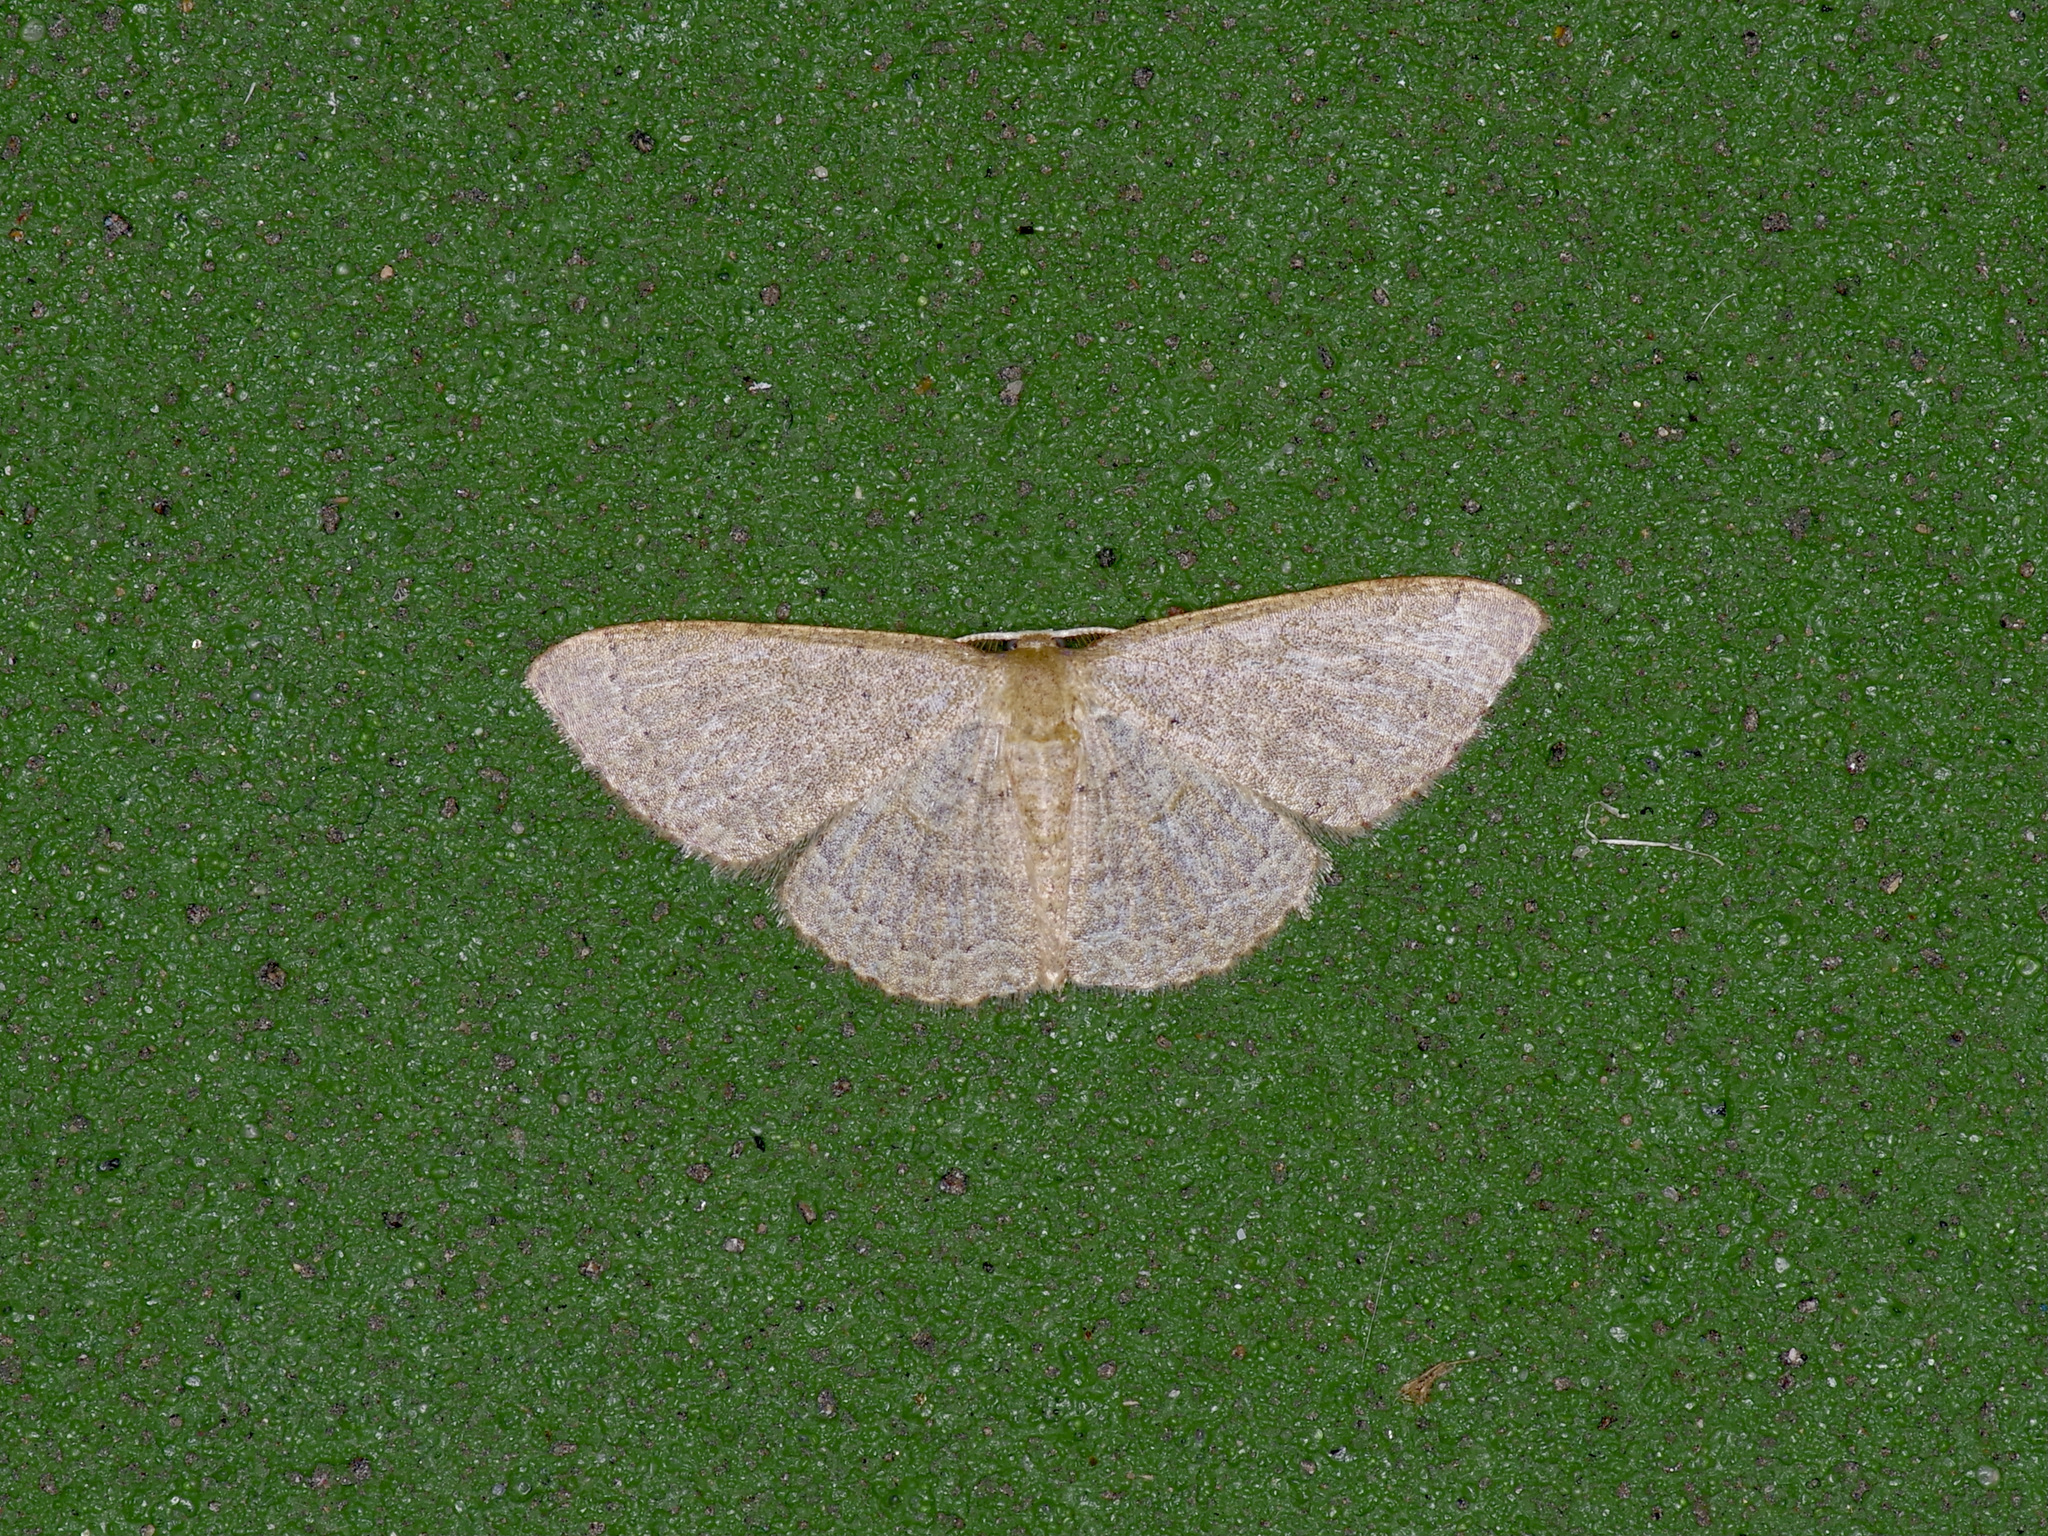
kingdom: Animalia
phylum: Arthropoda
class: Insecta
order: Lepidoptera
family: Geometridae
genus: Pleuroprucha
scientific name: Pleuroprucha insulsaria
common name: Common tan wave
